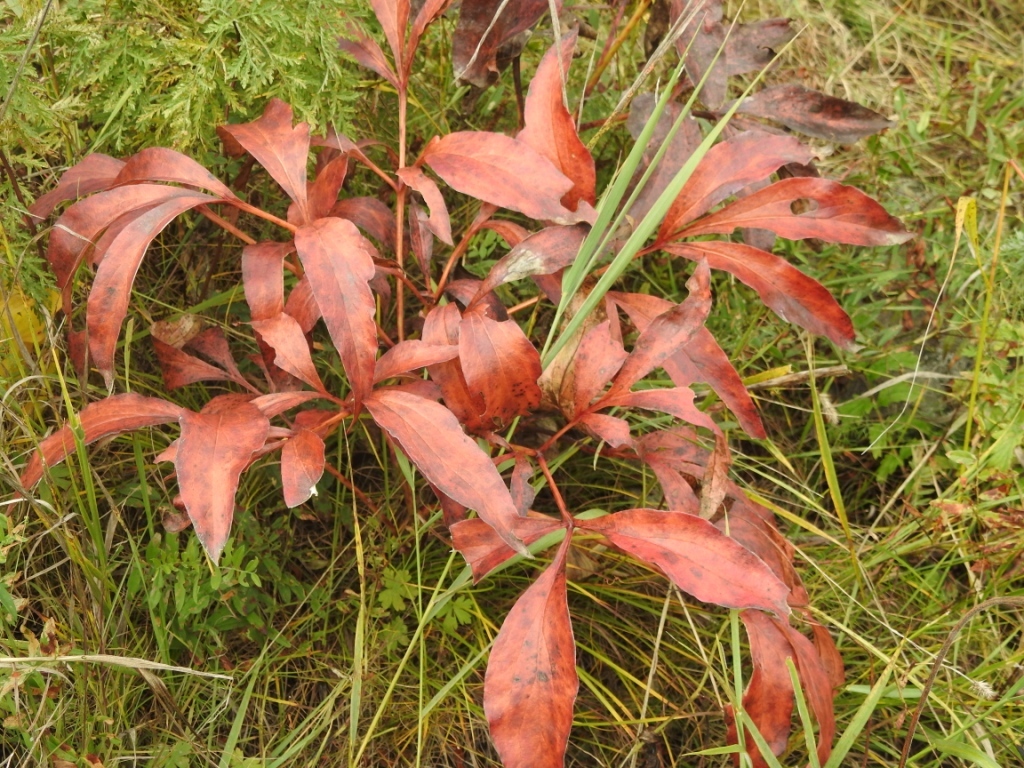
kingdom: Plantae
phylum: Tracheophyta
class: Magnoliopsida
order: Saxifragales
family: Paeoniaceae
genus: Paeonia
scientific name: Paeonia lactiflora
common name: Chinese peony
